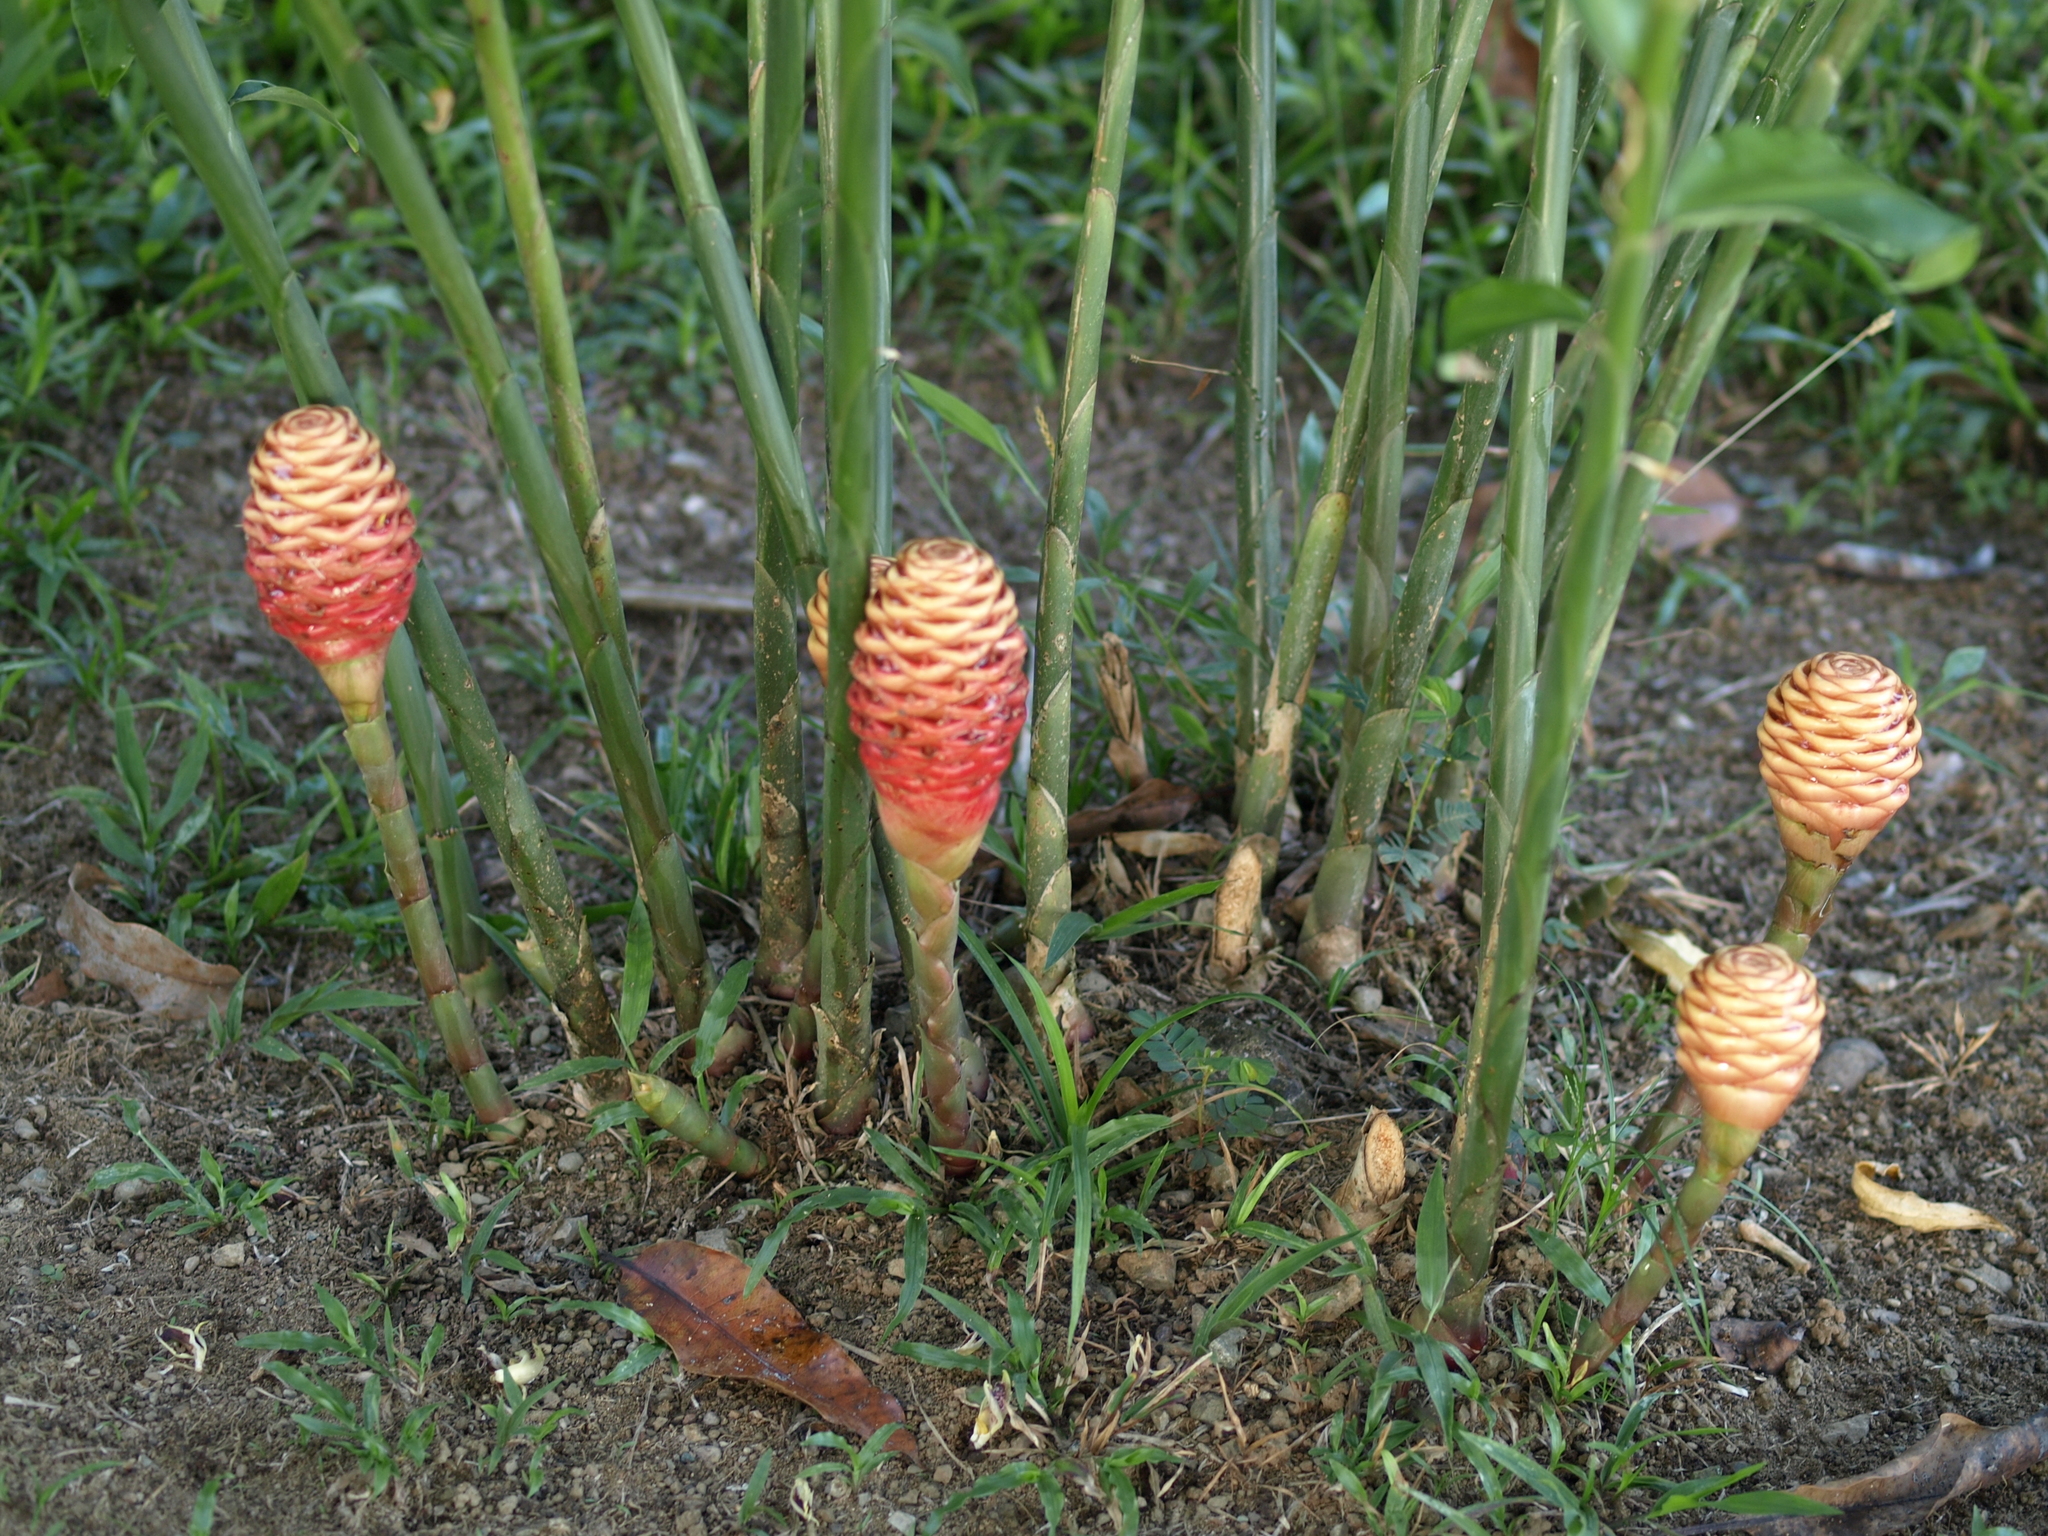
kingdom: Plantae
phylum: Tracheophyta
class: Liliopsida
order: Zingiberales
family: Zingiberaceae
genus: Zingiber
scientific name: Zingiber zerumbet
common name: Bitter ginger
